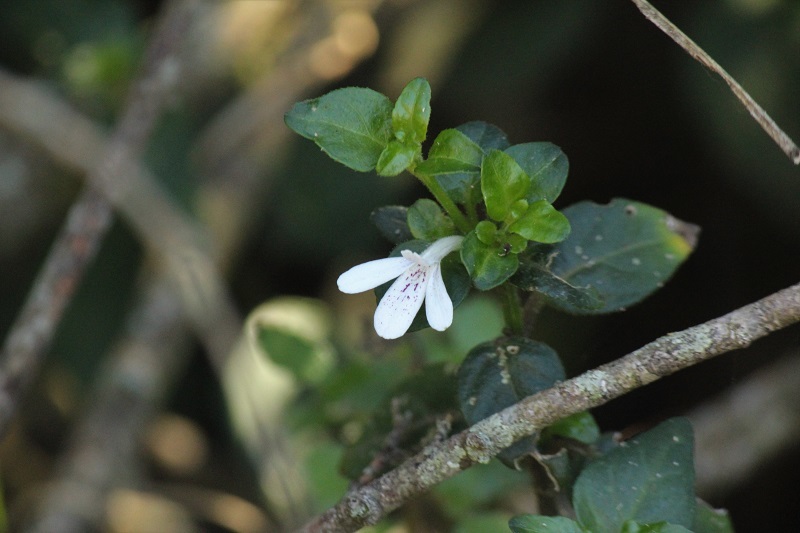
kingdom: Plantae
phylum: Tracheophyta
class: Magnoliopsida
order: Lamiales
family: Acanthaceae
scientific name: Acanthaceae
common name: Acanthaceae
